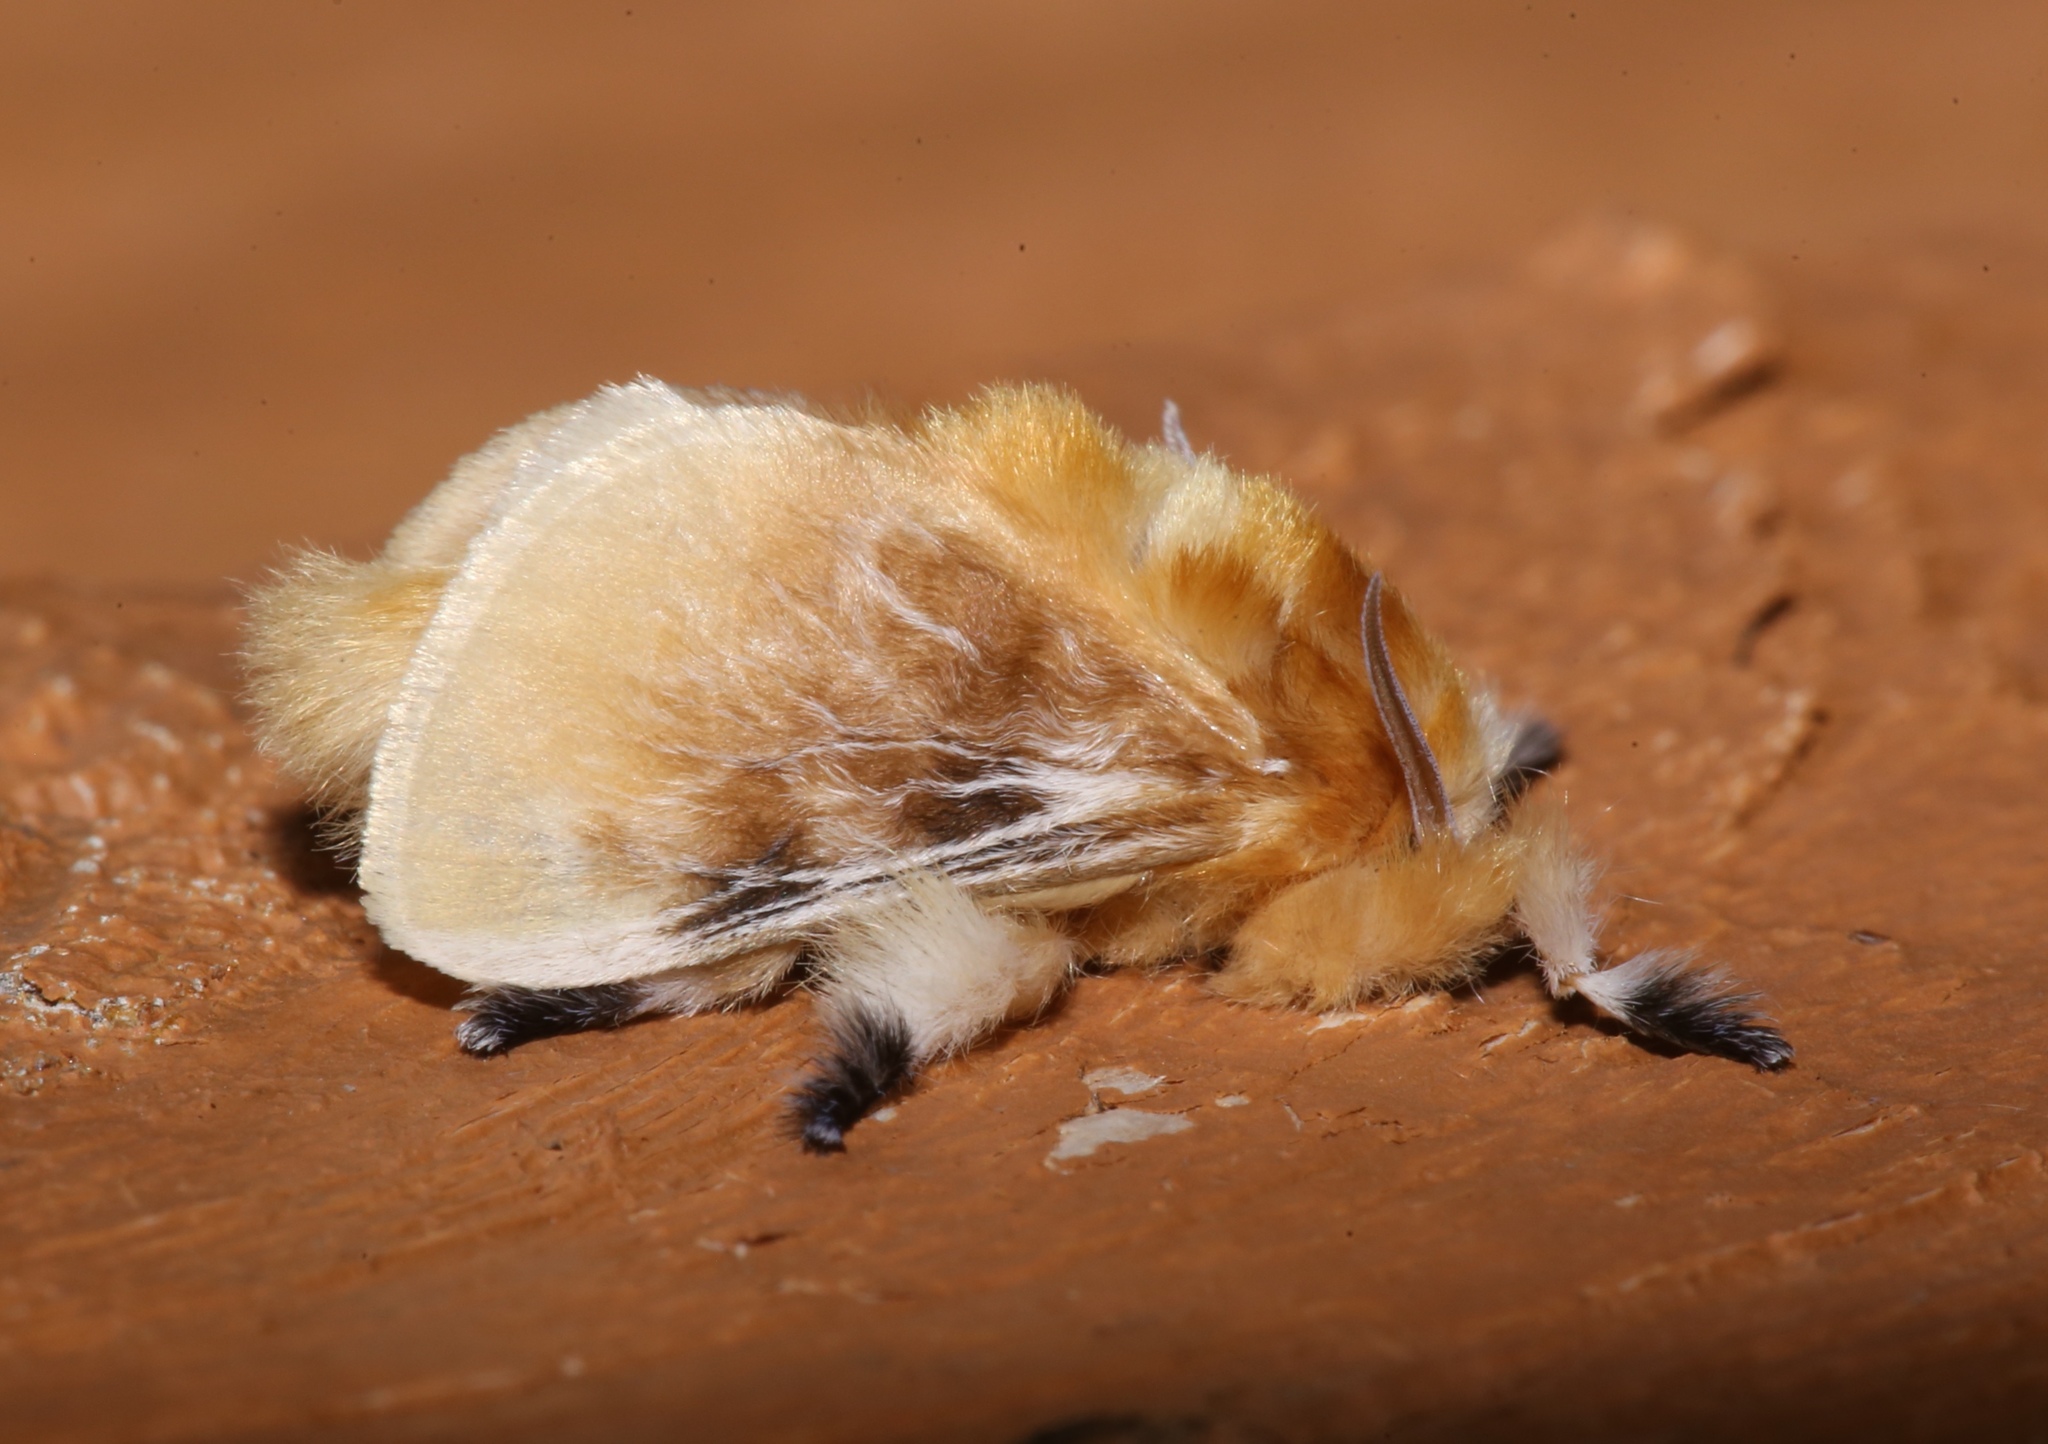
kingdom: Animalia
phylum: Arthropoda
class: Insecta
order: Lepidoptera
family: Megalopygidae
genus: Megalopyge
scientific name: Megalopyge opercularis
